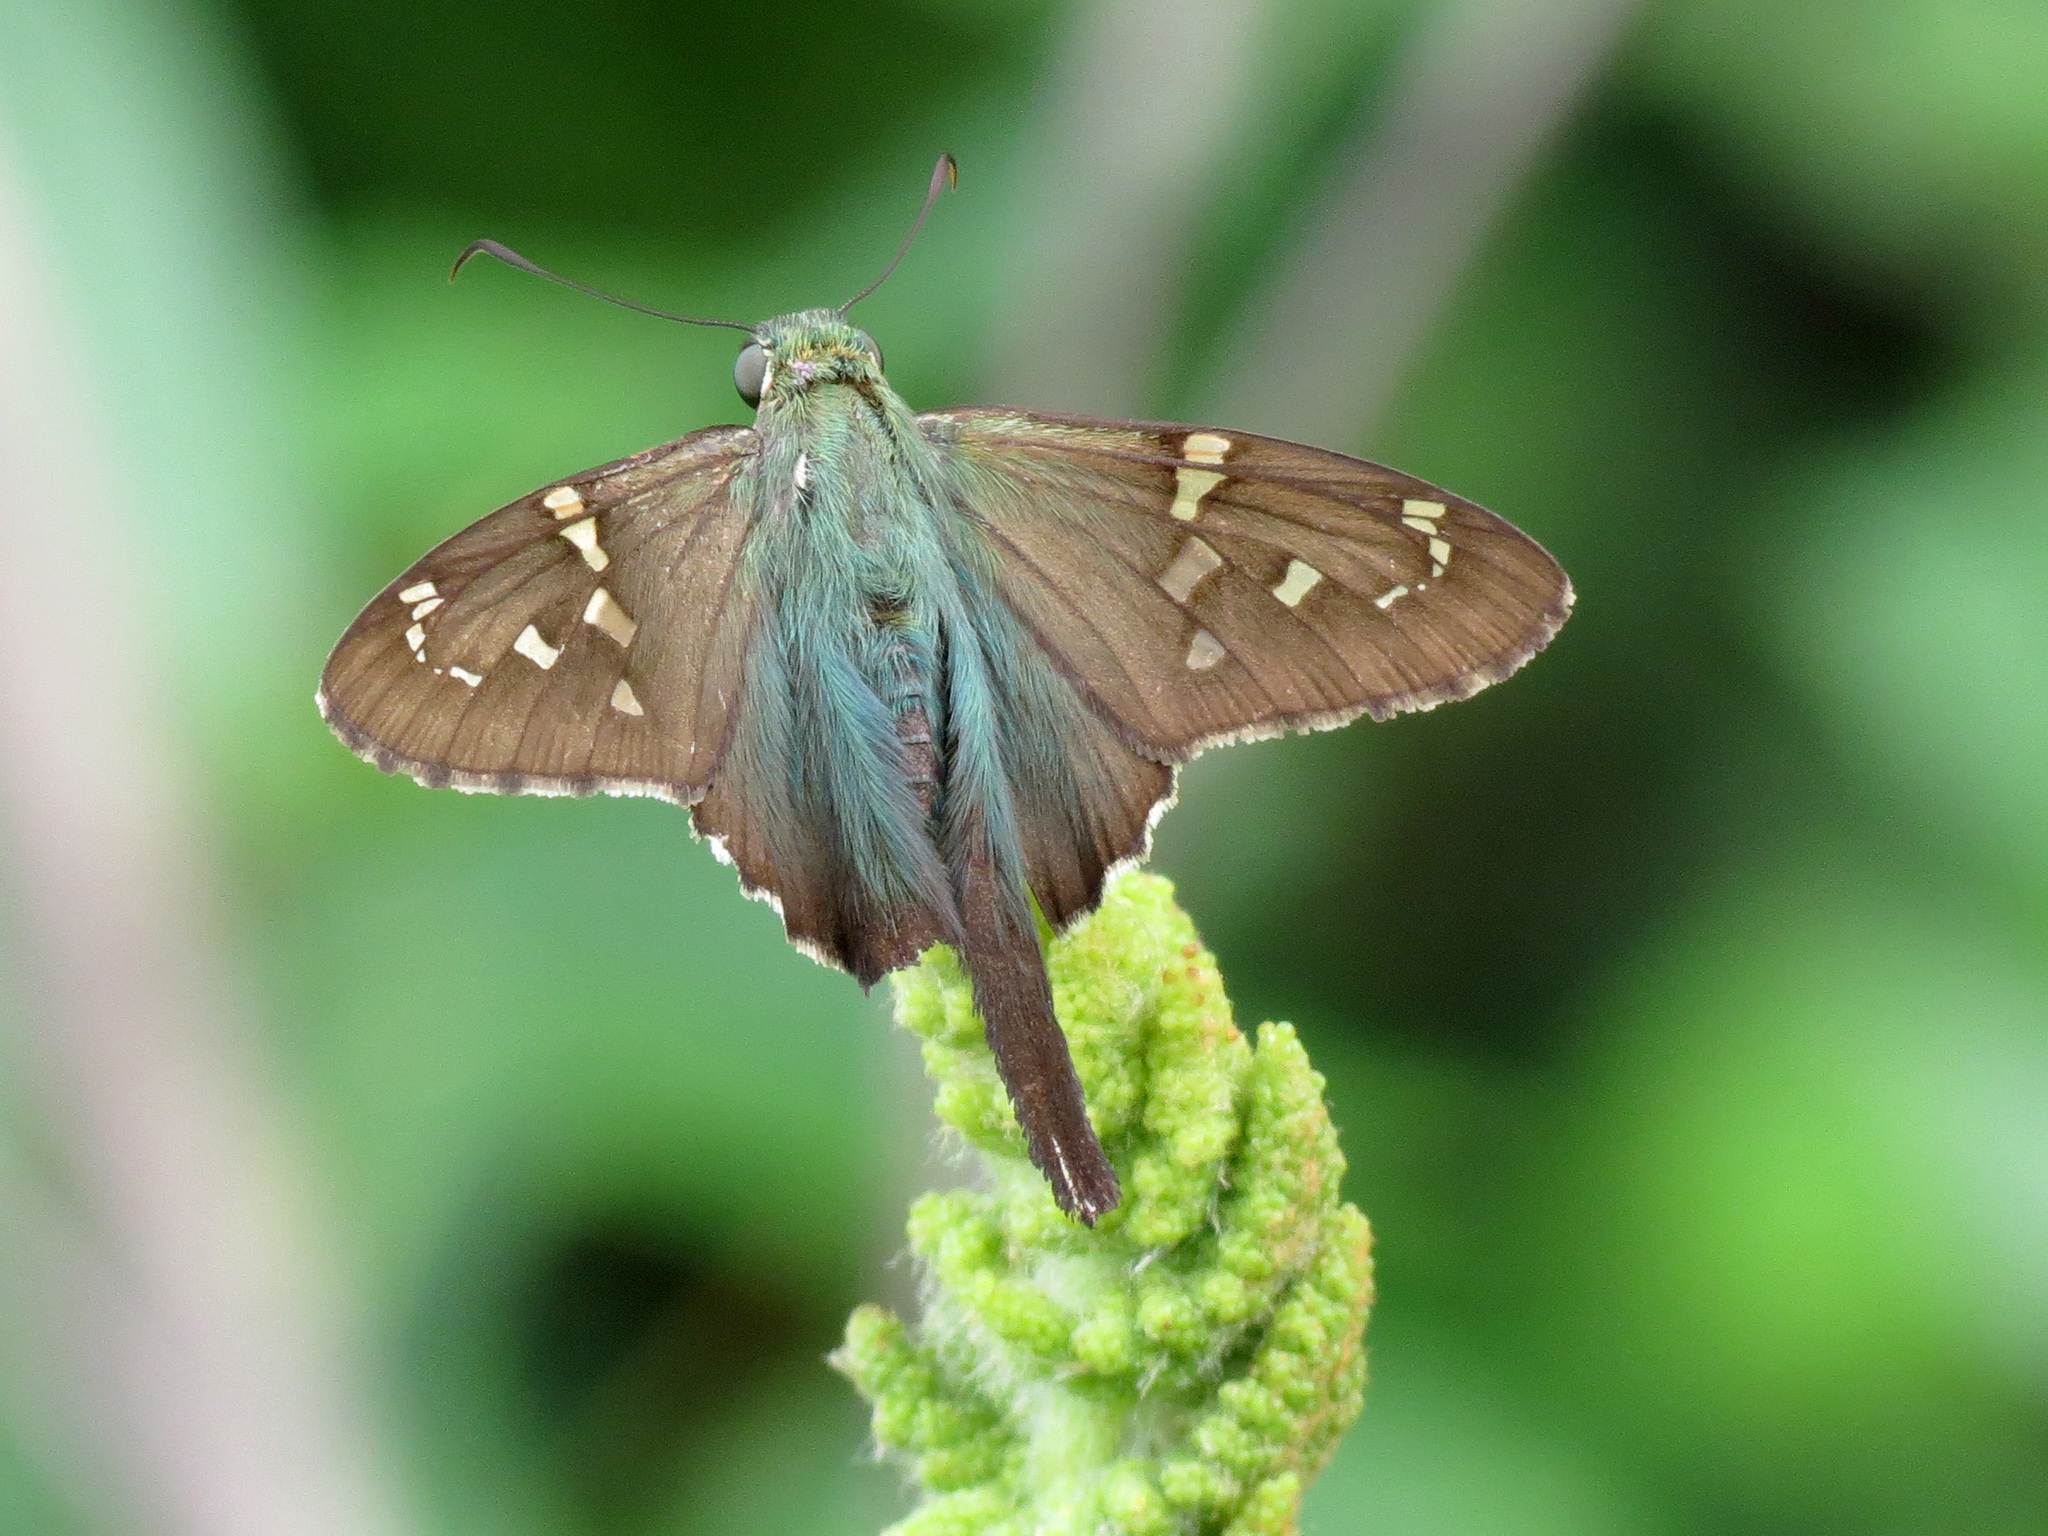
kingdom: Animalia
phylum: Arthropoda
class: Insecta
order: Lepidoptera
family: Hesperiidae
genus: Urbanus
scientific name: Urbanus proteus
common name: Long-tailed skipper
